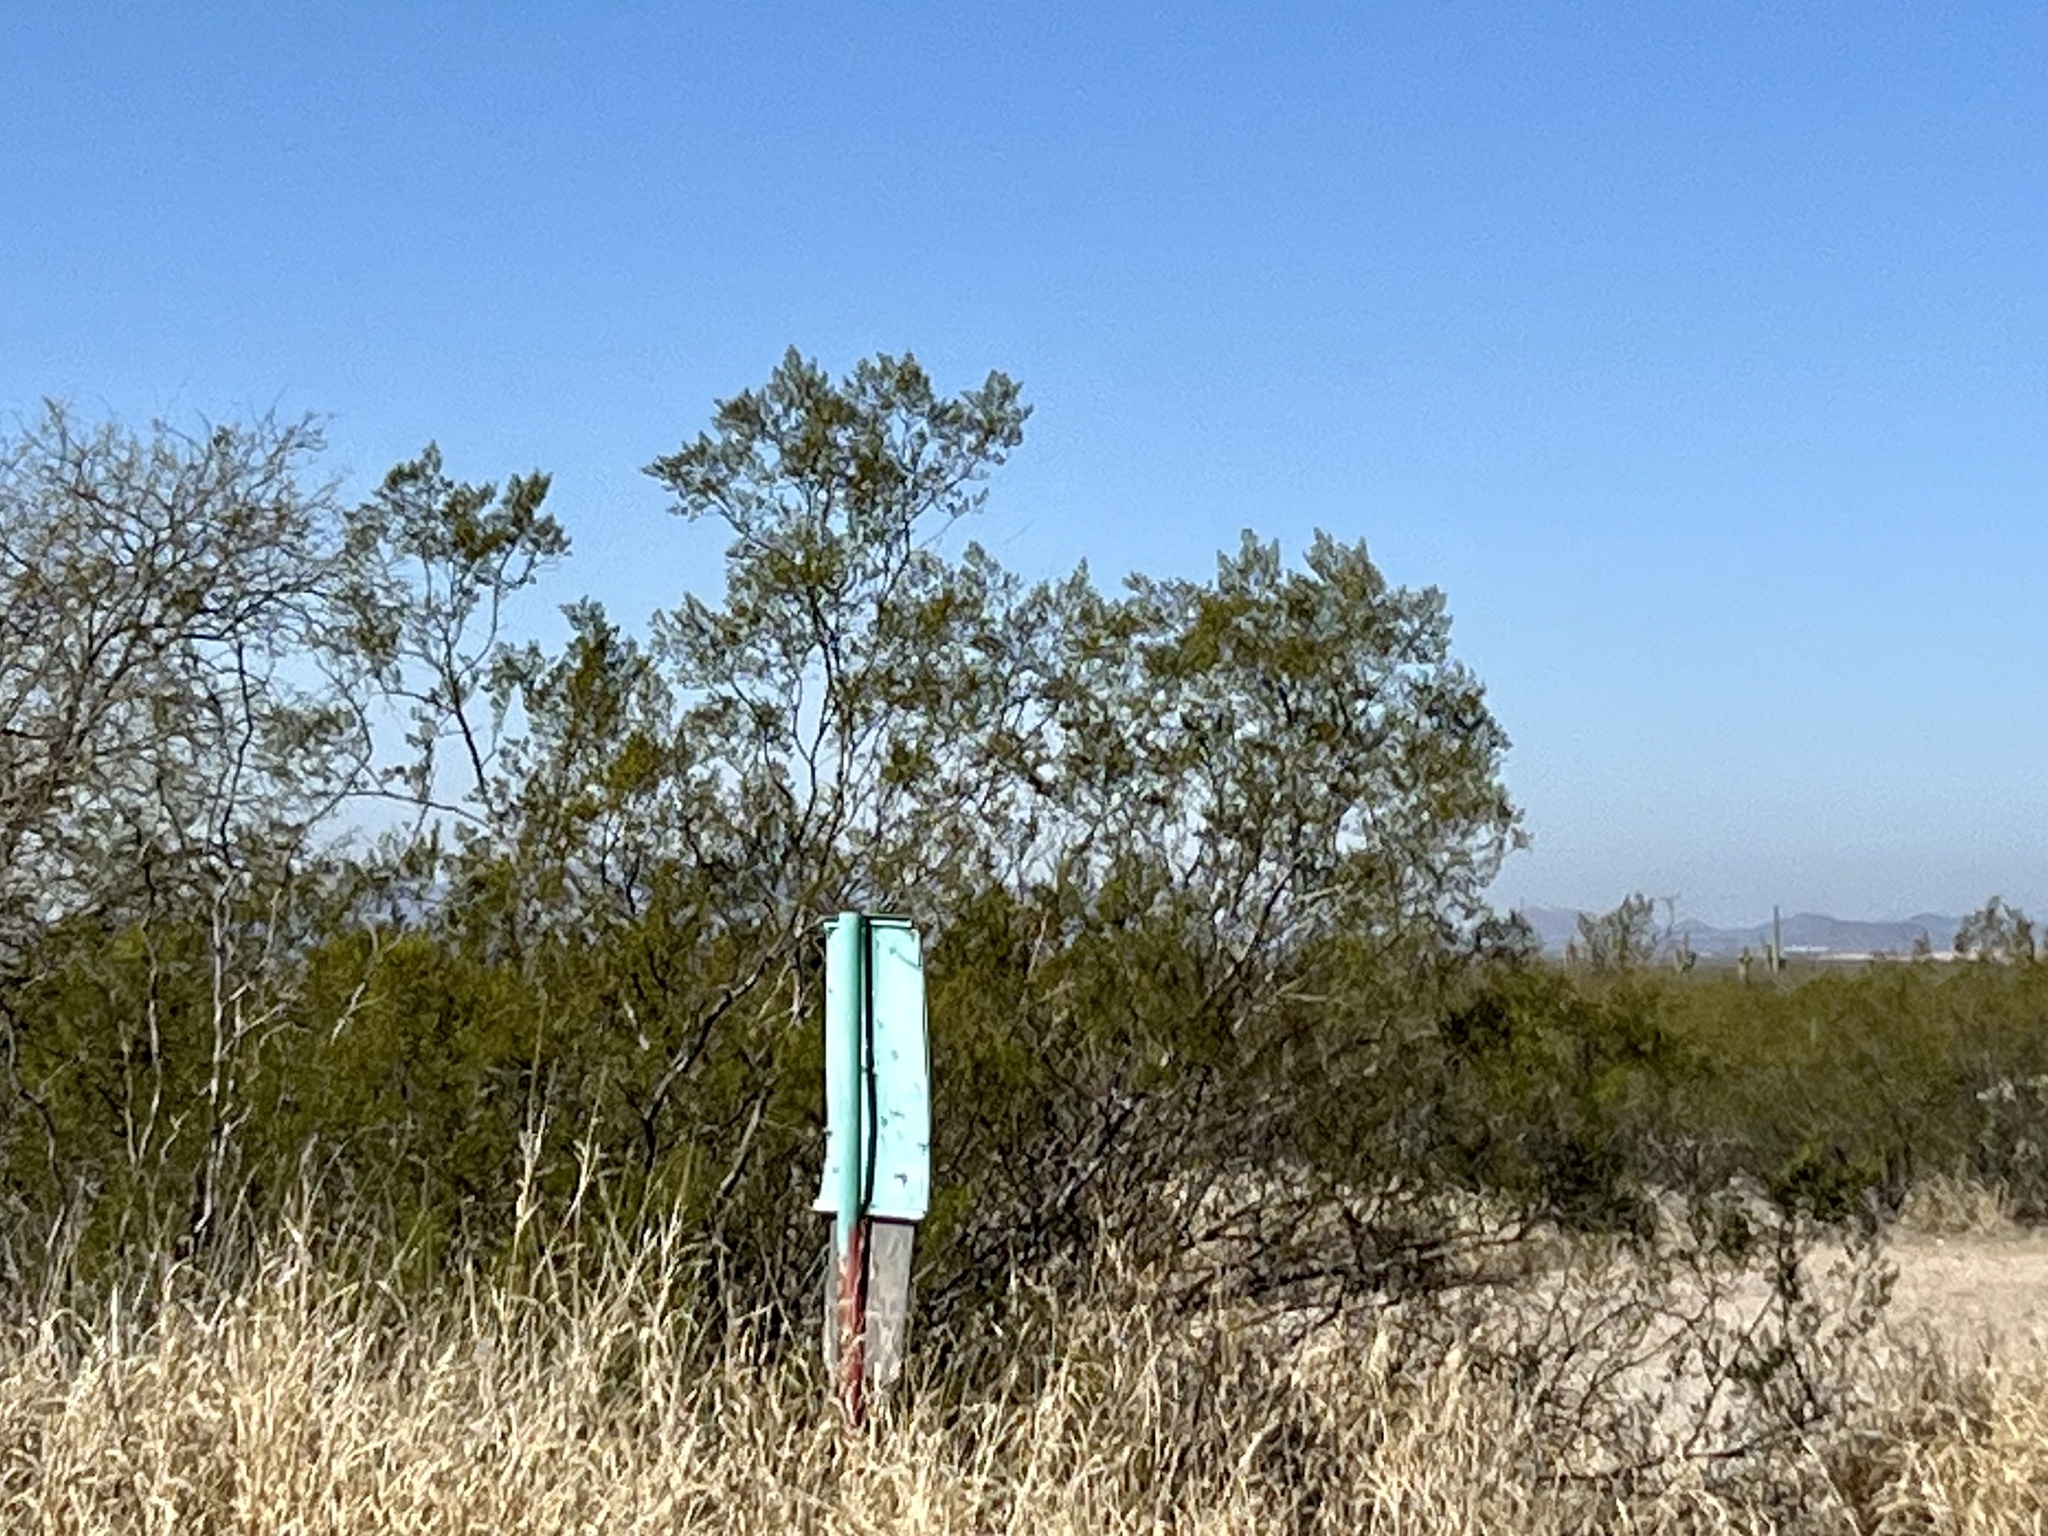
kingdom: Plantae
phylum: Tracheophyta
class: Magnoliopsida
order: Zygophyllales
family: Zygophyllaceae
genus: Larrea
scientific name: Larrea tridentata
